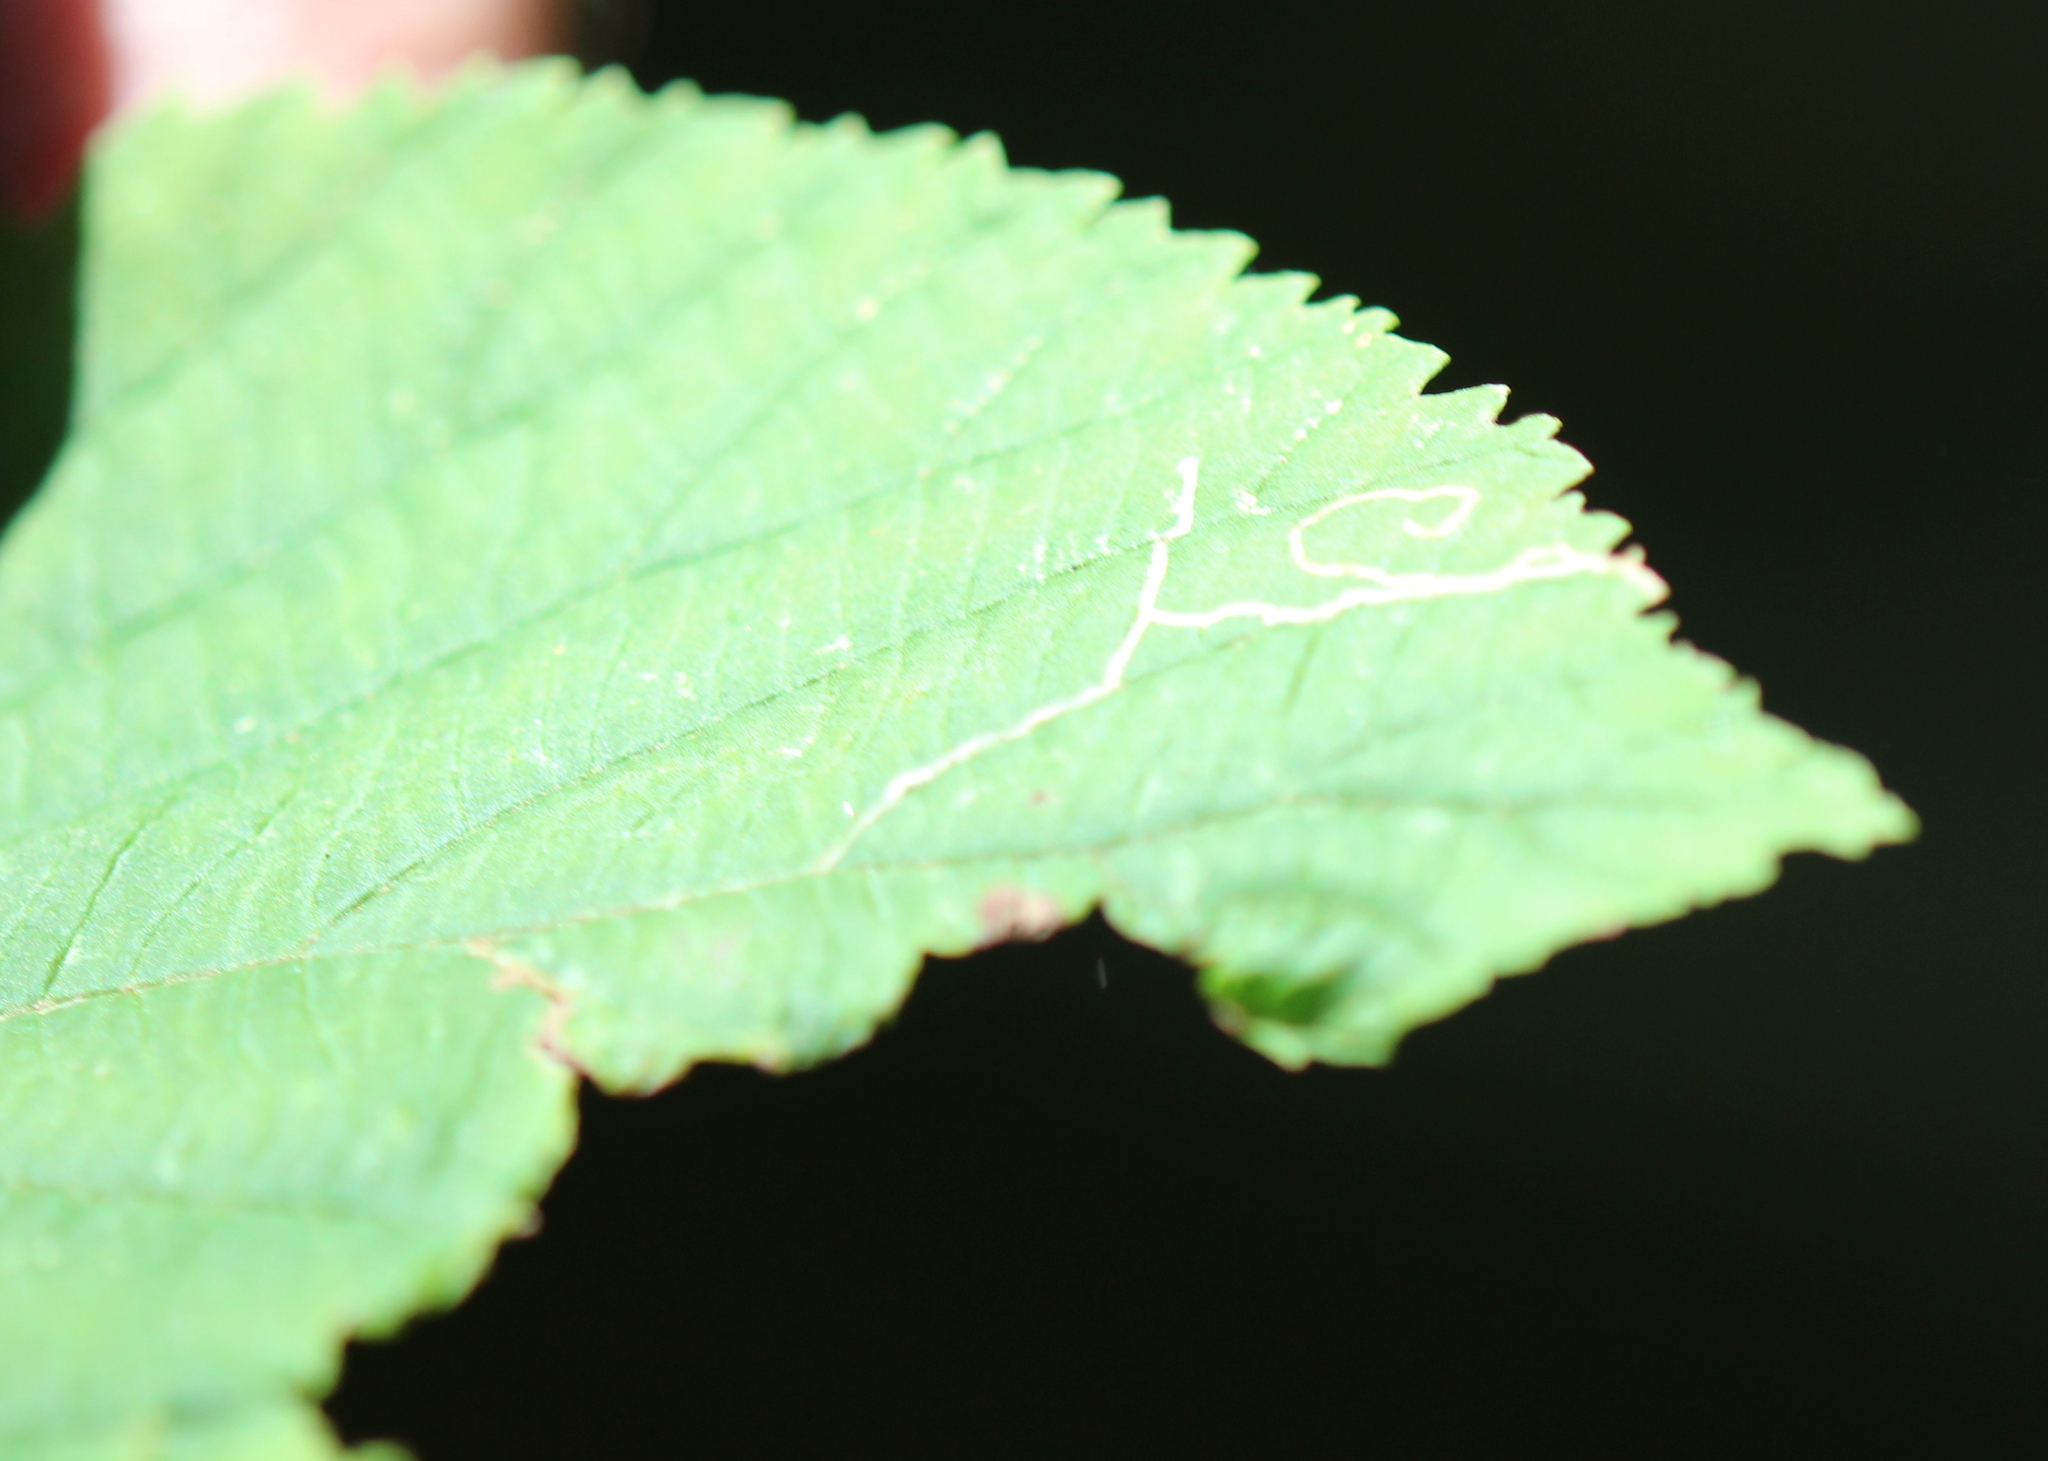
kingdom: Animalia
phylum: Arthropoda
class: Insecta
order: Lepidoptera
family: Gracillariidae
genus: Marmara
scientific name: Marmara viburnella
